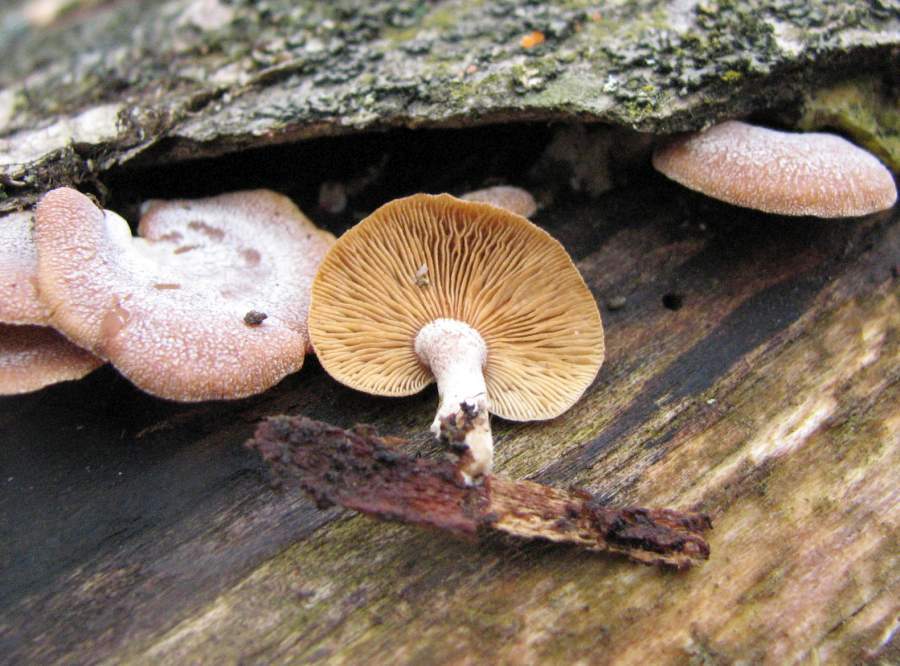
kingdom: Fungi
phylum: Basidiomycota
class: Agaricomycetes
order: Agaricales
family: Mycenaceae
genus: Panellus
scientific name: Panellus stipticus
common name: Bitter oysterling
